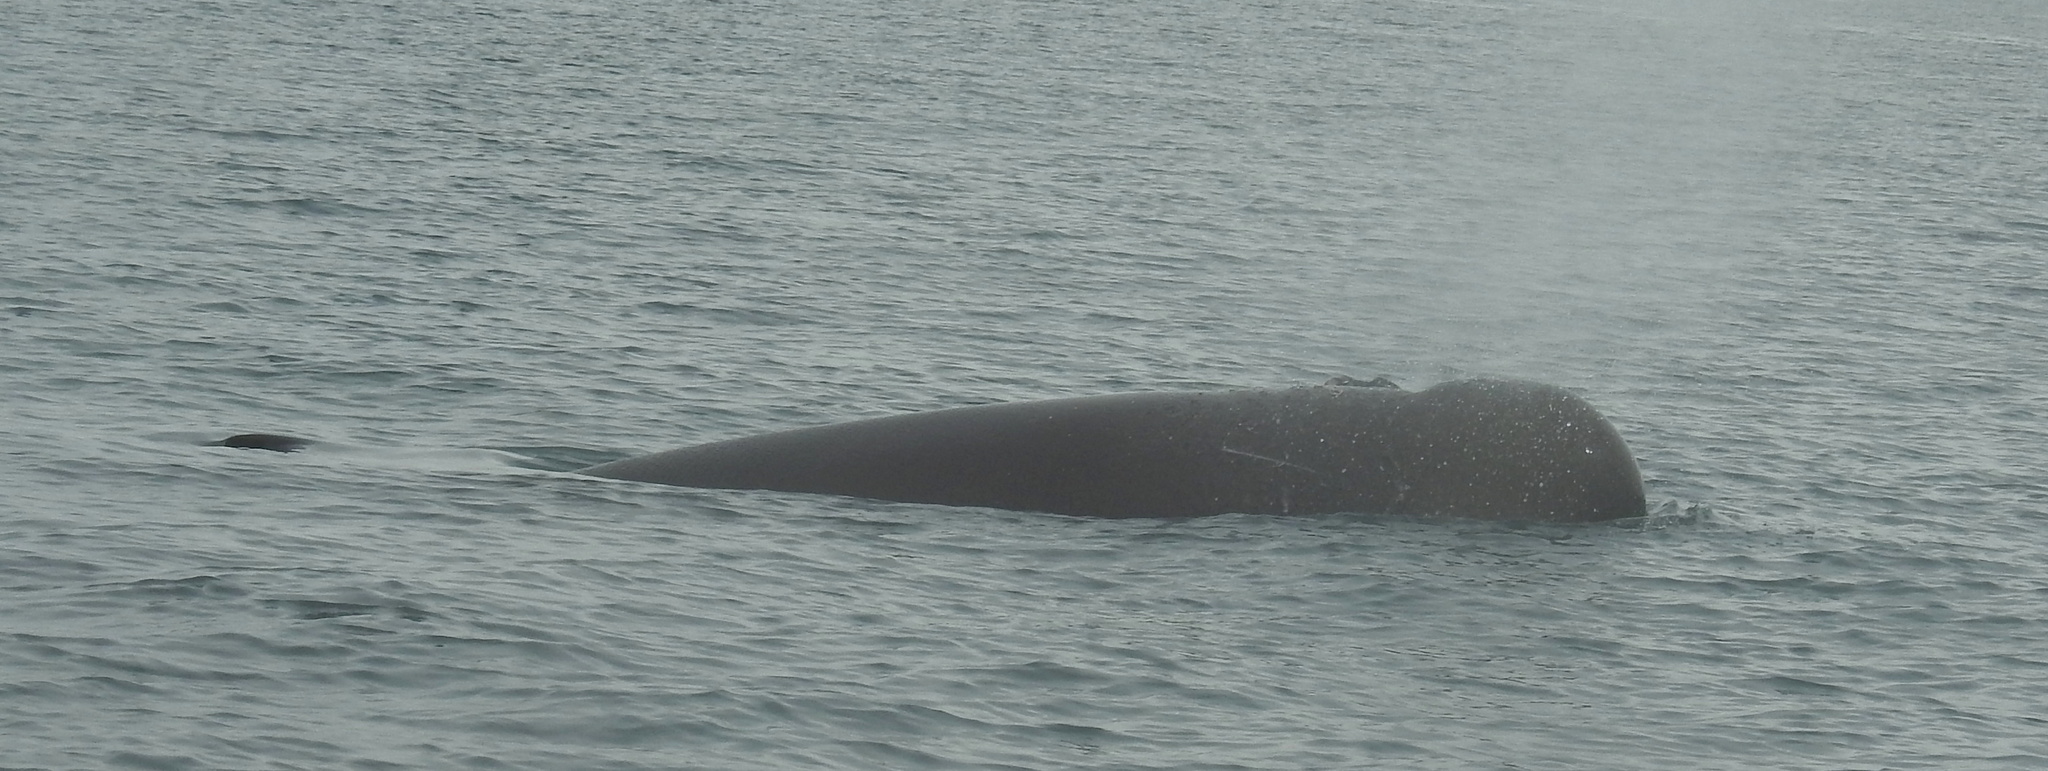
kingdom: Animalia
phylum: Chordata
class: Mammalia
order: Cetacea
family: Hyperoodontidae
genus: Hyperoodon
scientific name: Hyperoodon ampullatus
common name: Northern bottlenose whale
